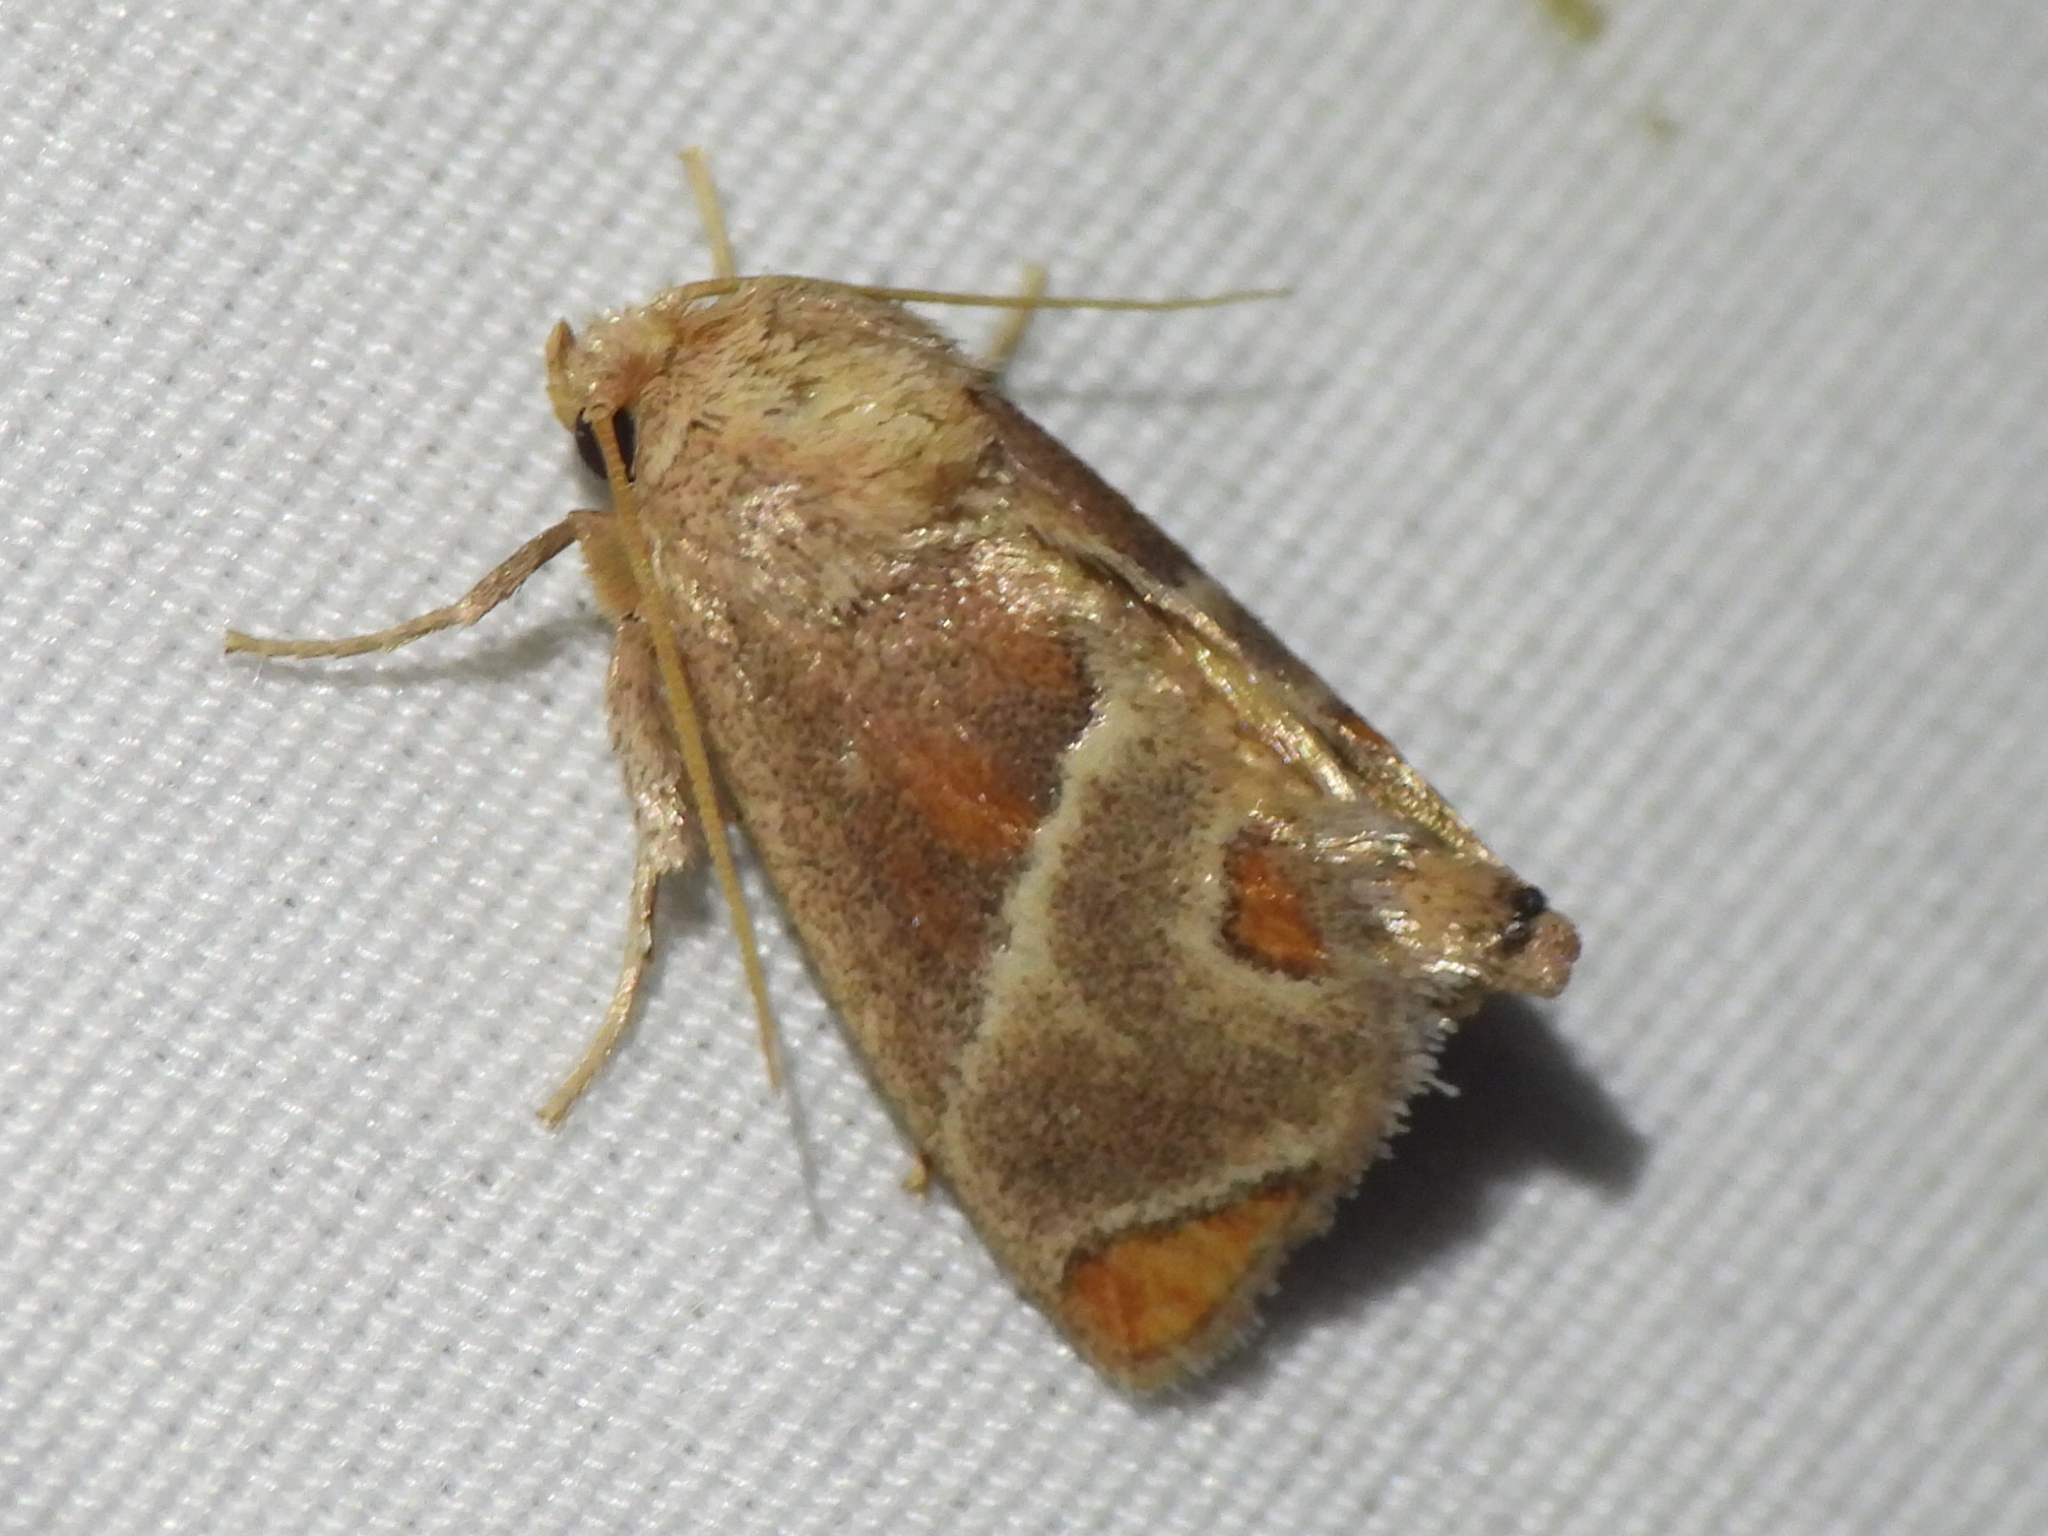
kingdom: Animalia
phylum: Arthropoda
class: Insecta
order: Lepidoptera
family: Limacodidae
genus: Apoda
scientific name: Apoda biguttata
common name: Shagreened slug moth
